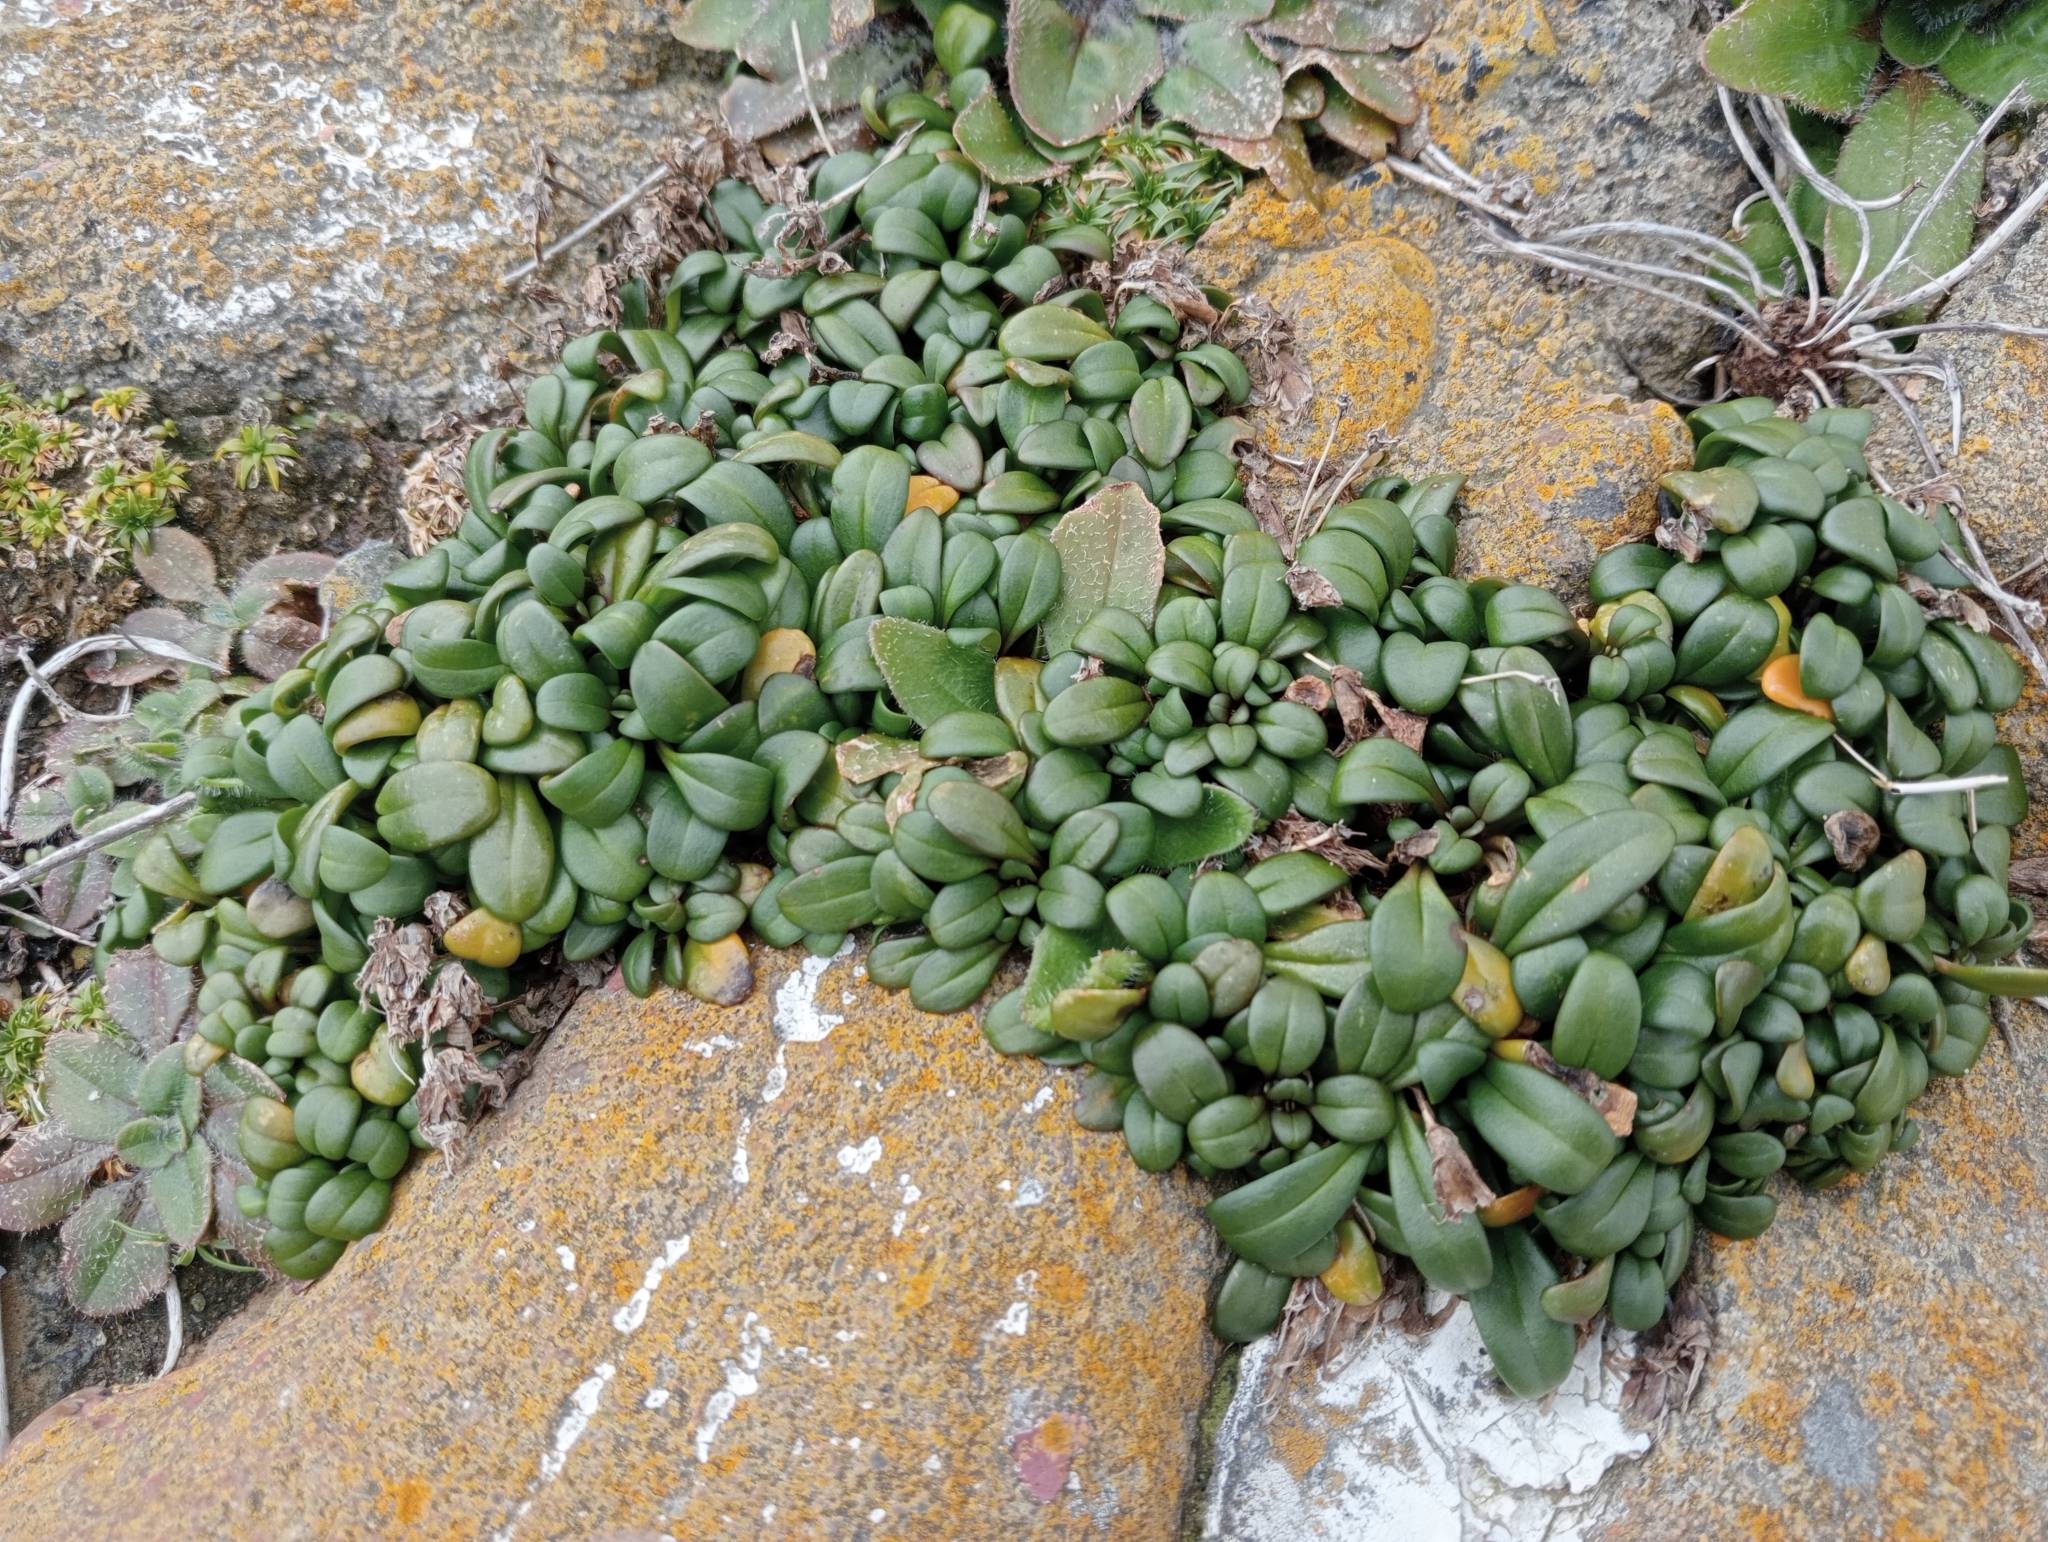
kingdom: Plantae
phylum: Tracheophyta
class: Magnoliopsida
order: Gentianales
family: Gentianaceae
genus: Gentianella
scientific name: Gentianella saxosa
